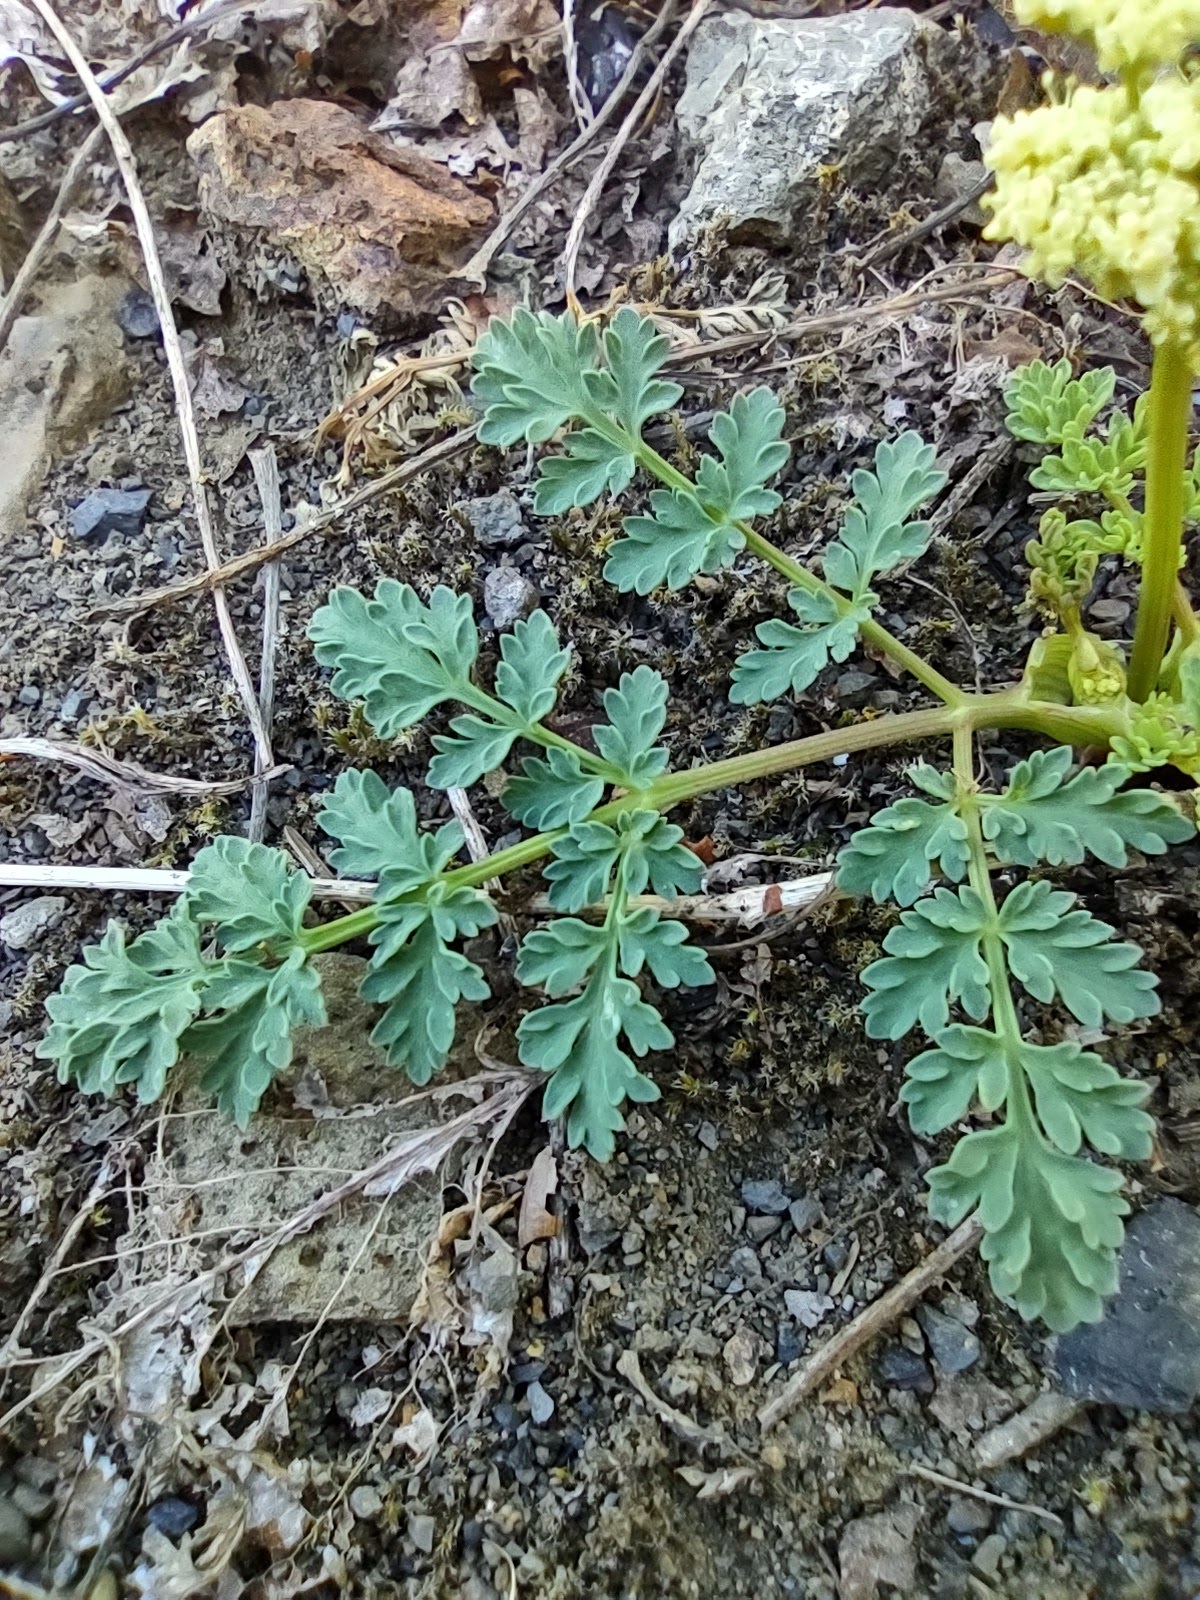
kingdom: Plantae
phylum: Tracheophyta
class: Magnoliopsida
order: Apiales
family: Apiaceae
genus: Lomatium
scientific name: Lomatium martindalei
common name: Cascade desert-parsley
